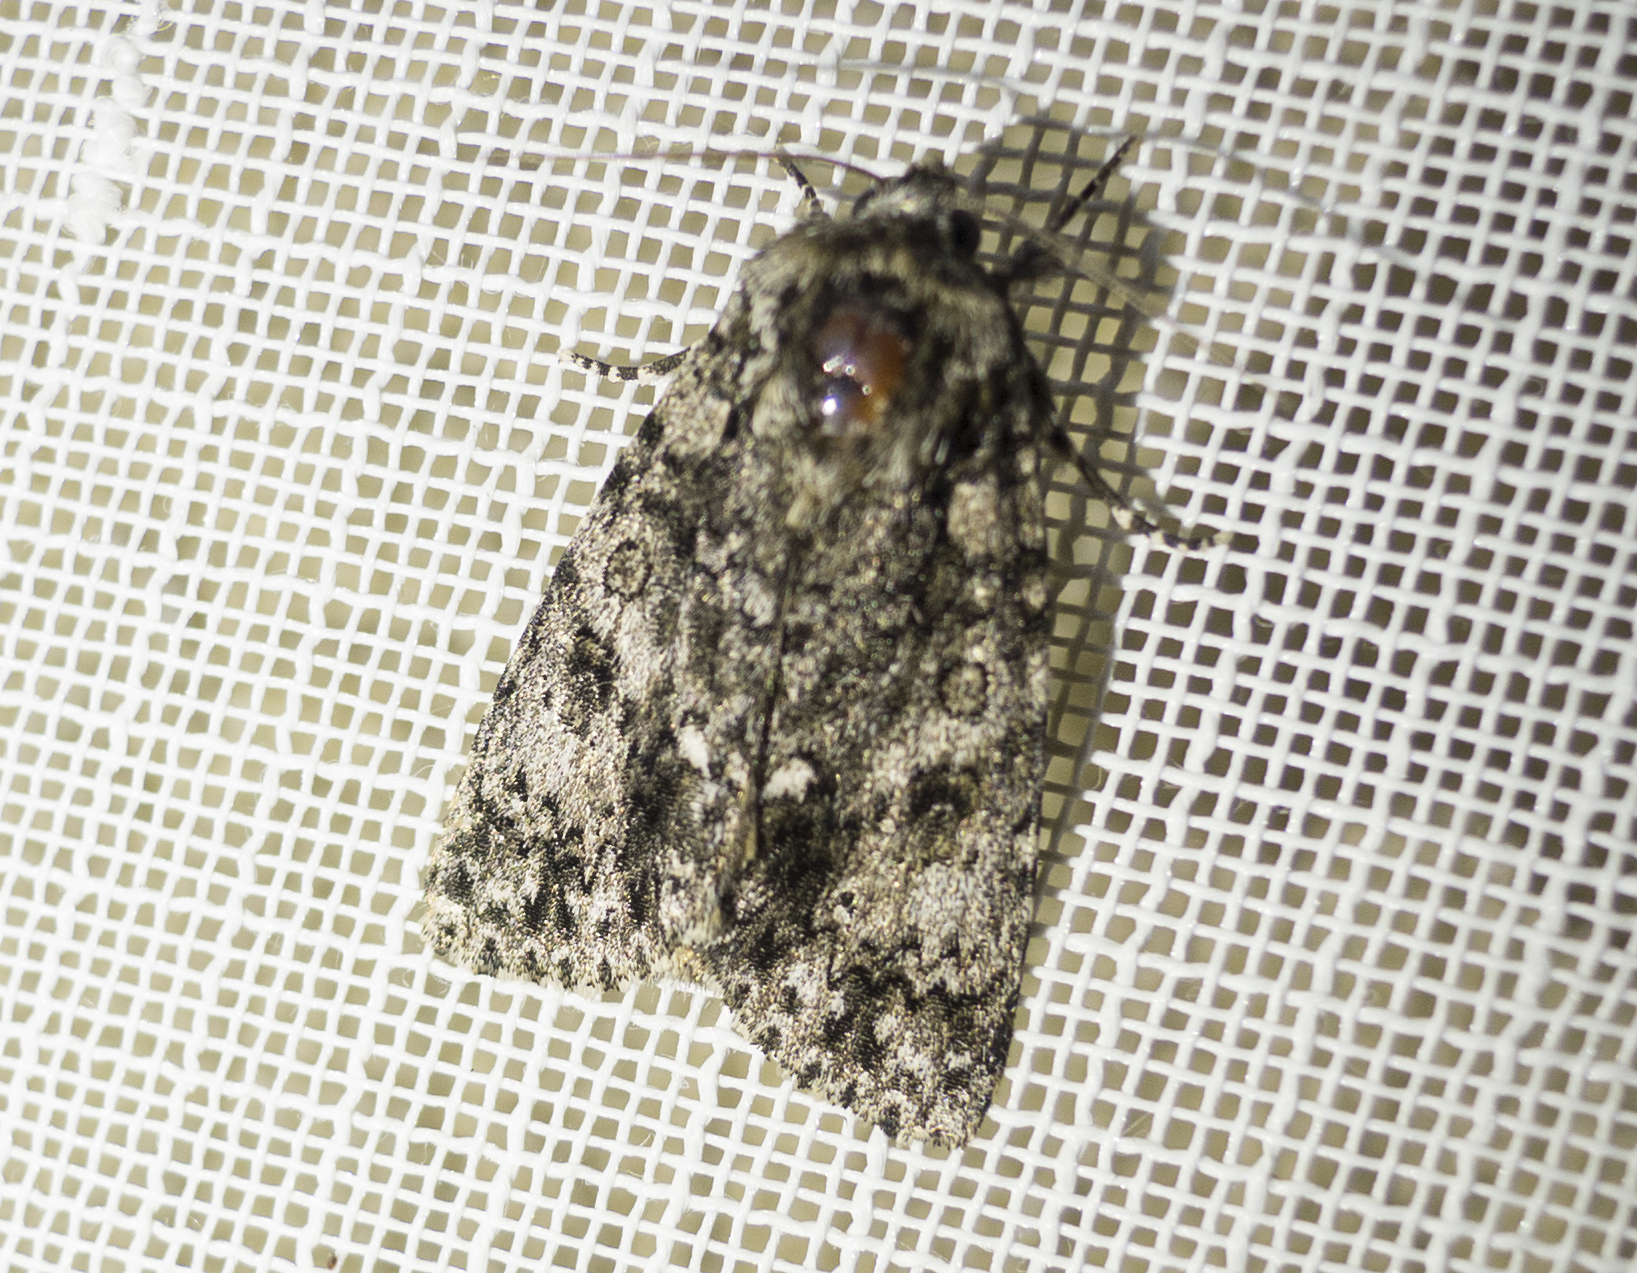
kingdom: Animalia
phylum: Arthropoda
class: Insecta
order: Lepidoptera
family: Noctuidae
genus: Acronicta
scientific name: Acronicta rumicis
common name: Knot grass
